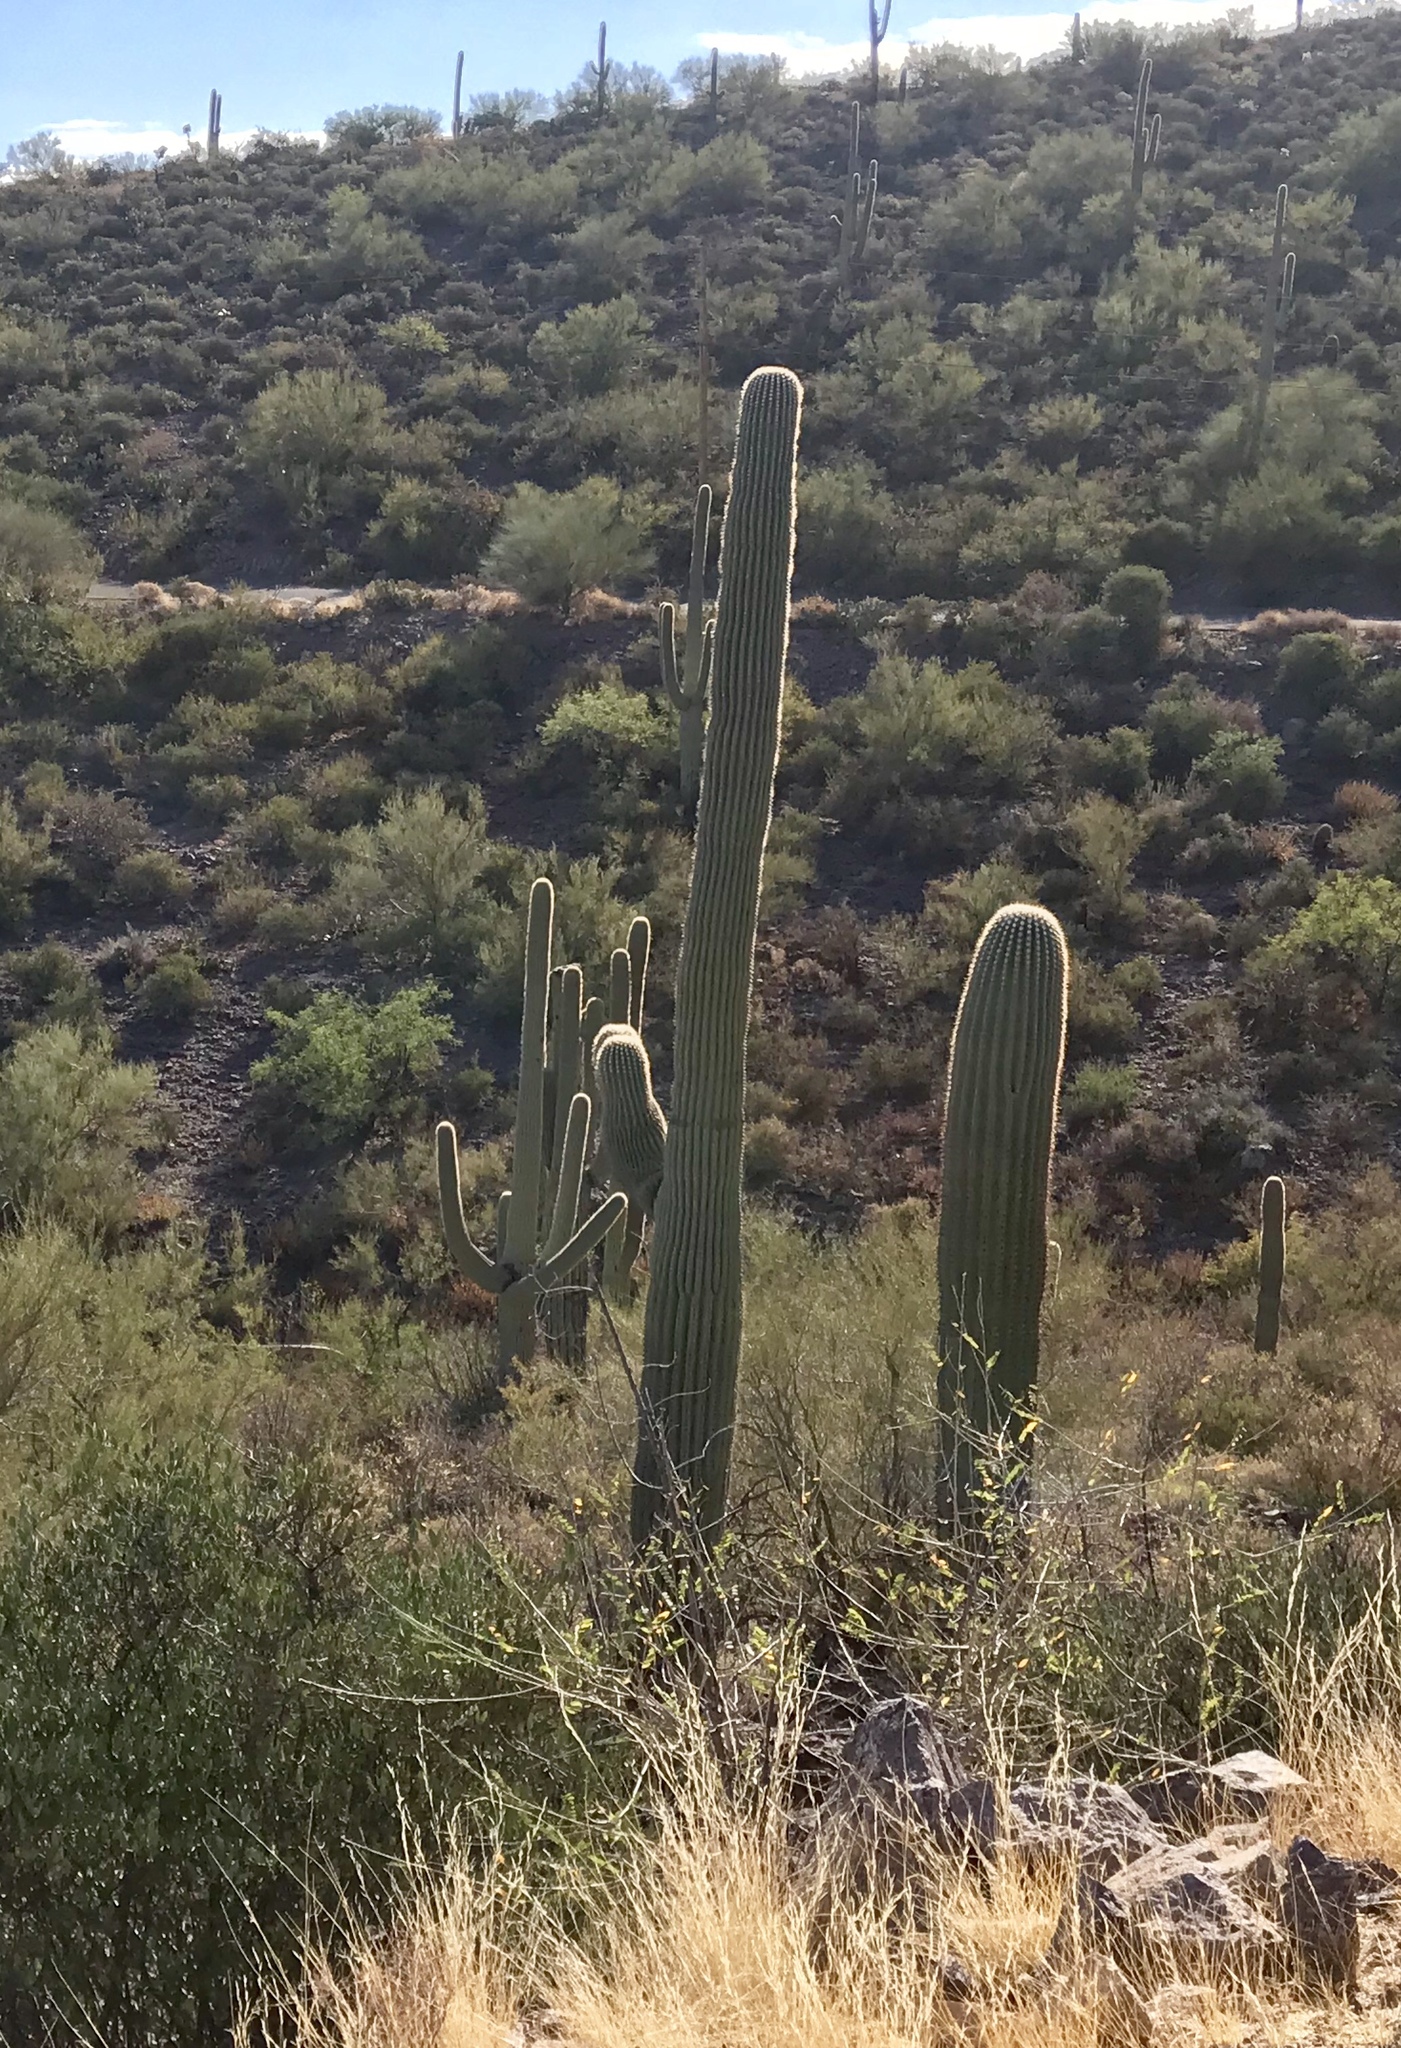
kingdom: Plantae
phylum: Tracheophyta
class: Magnoliopsida
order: Caryophyllales
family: Cactaceae
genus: Carnegiea
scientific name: Carnegiea gigantea
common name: Saguaro
